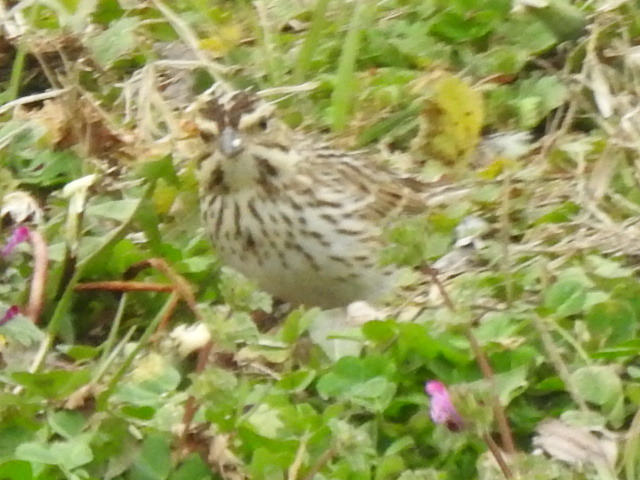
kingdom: Animalia
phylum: Chordata
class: Aves
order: Passeriformes
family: Passerellidae
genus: Passerculus
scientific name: Passerculus sandwichensis
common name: Savannah sparrow
